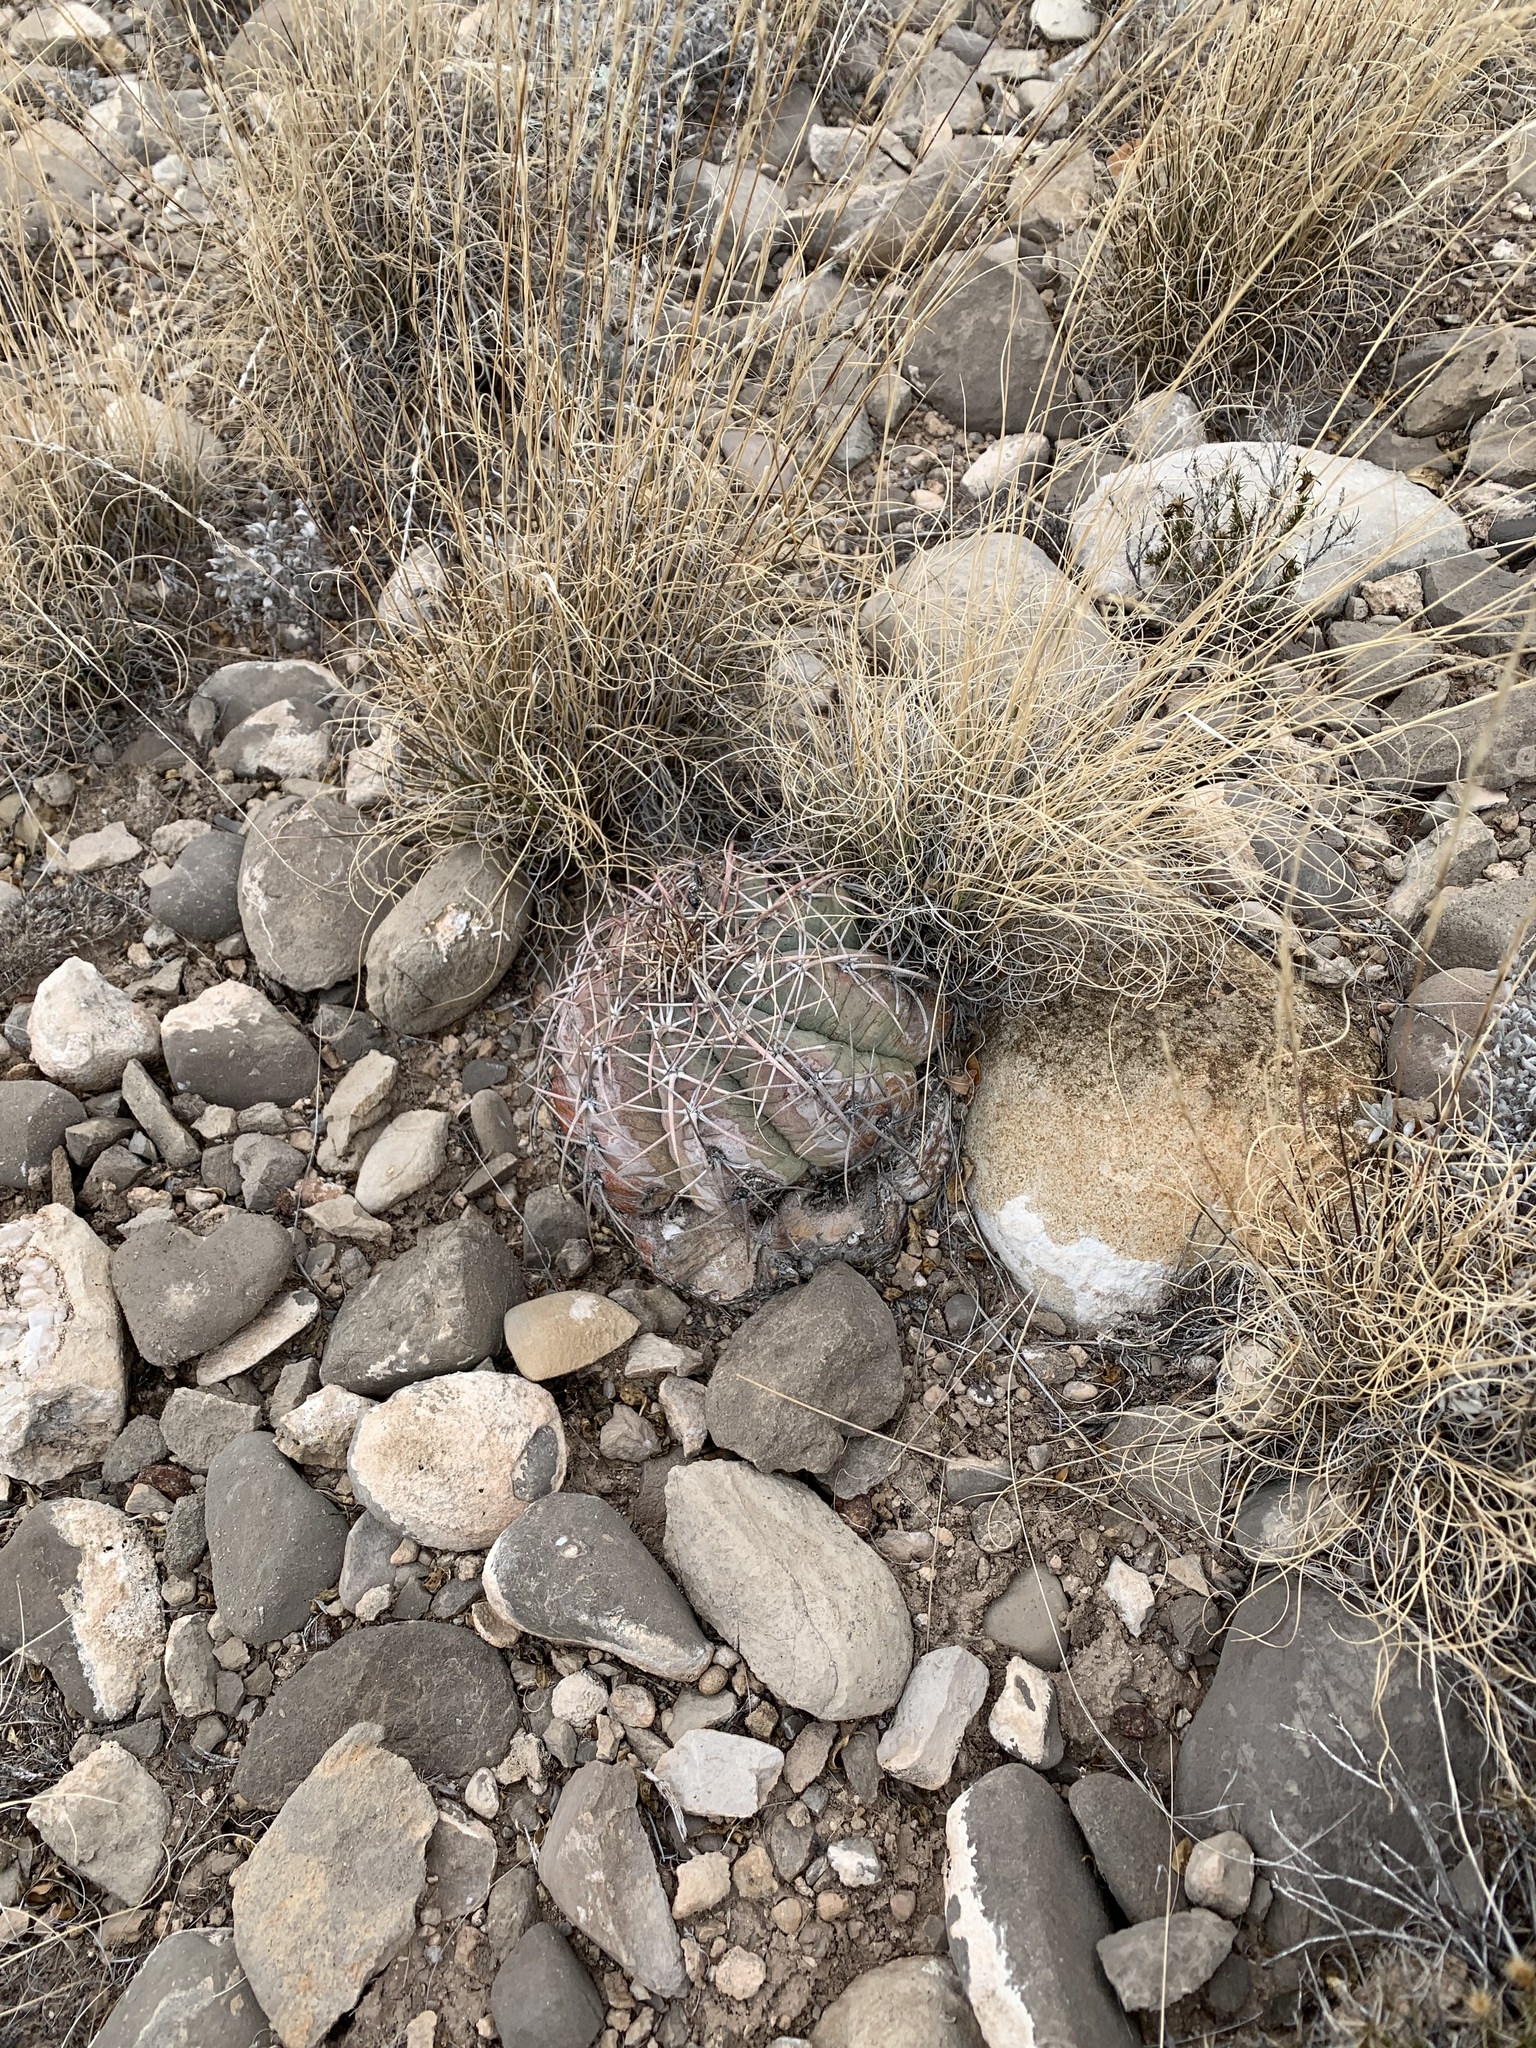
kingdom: Plantae
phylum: Tracheophyta
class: Magnoliopsida
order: Caryophyllales
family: Cactaceae
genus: Echinocactus
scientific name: Echinocactus horizonthalonius
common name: Devilshead
